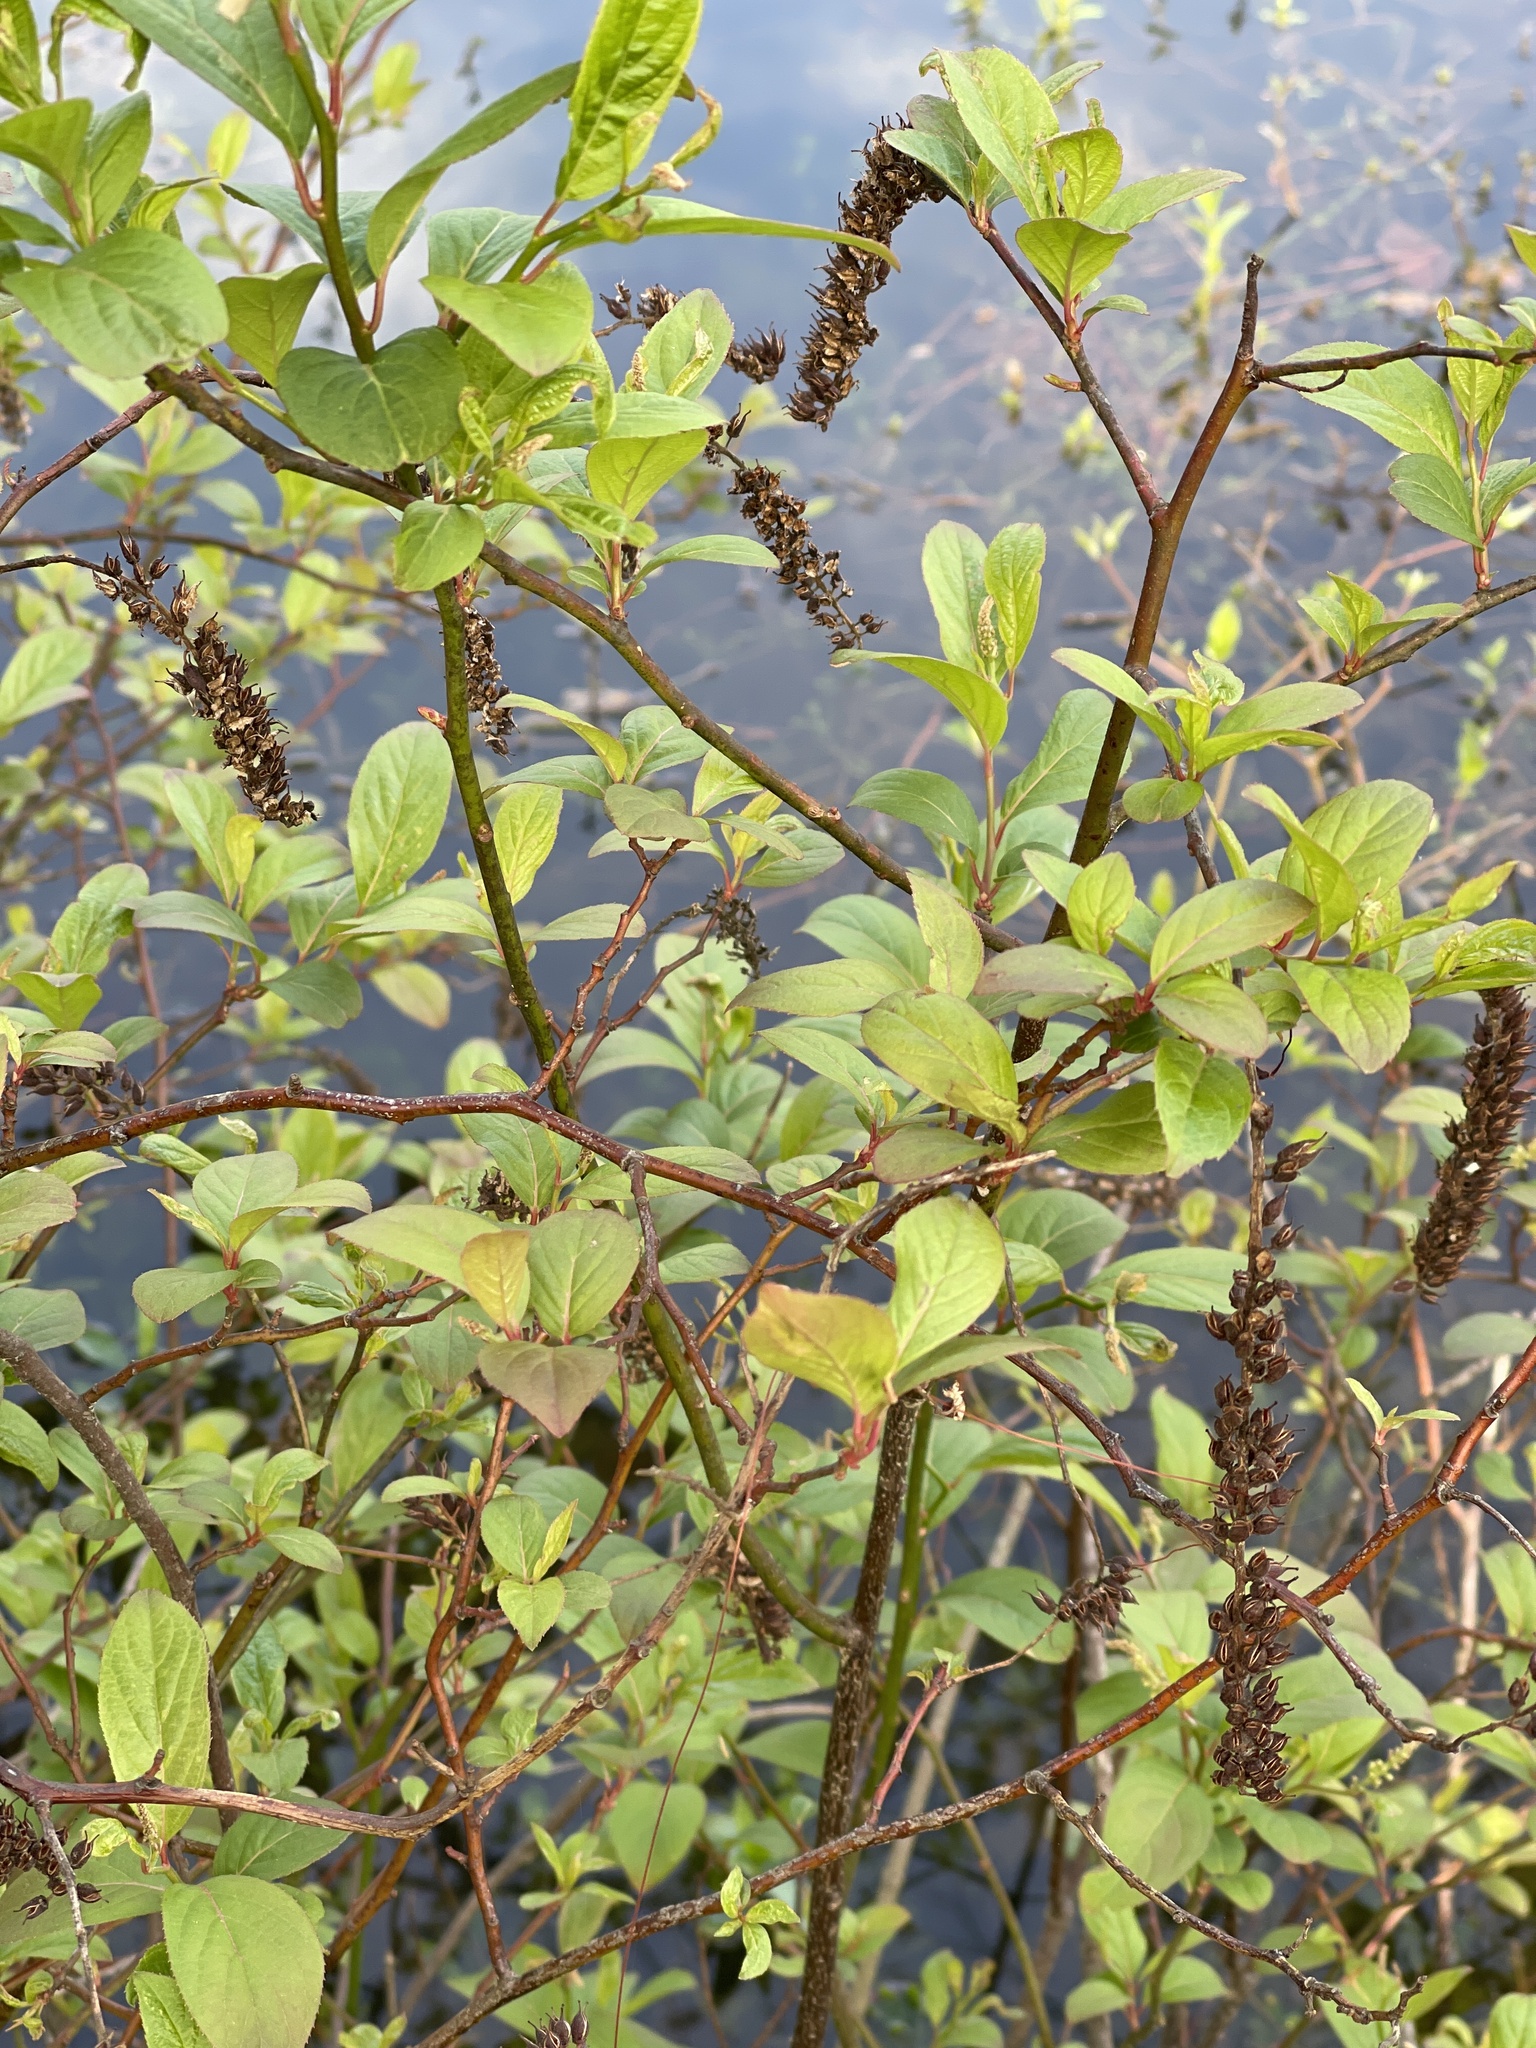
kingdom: Plantae
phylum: Tracheophyta
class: Magnoliopsida
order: Saxifragales
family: Iteaceae
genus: Itea
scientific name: Itea virginica
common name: Sweetspire
